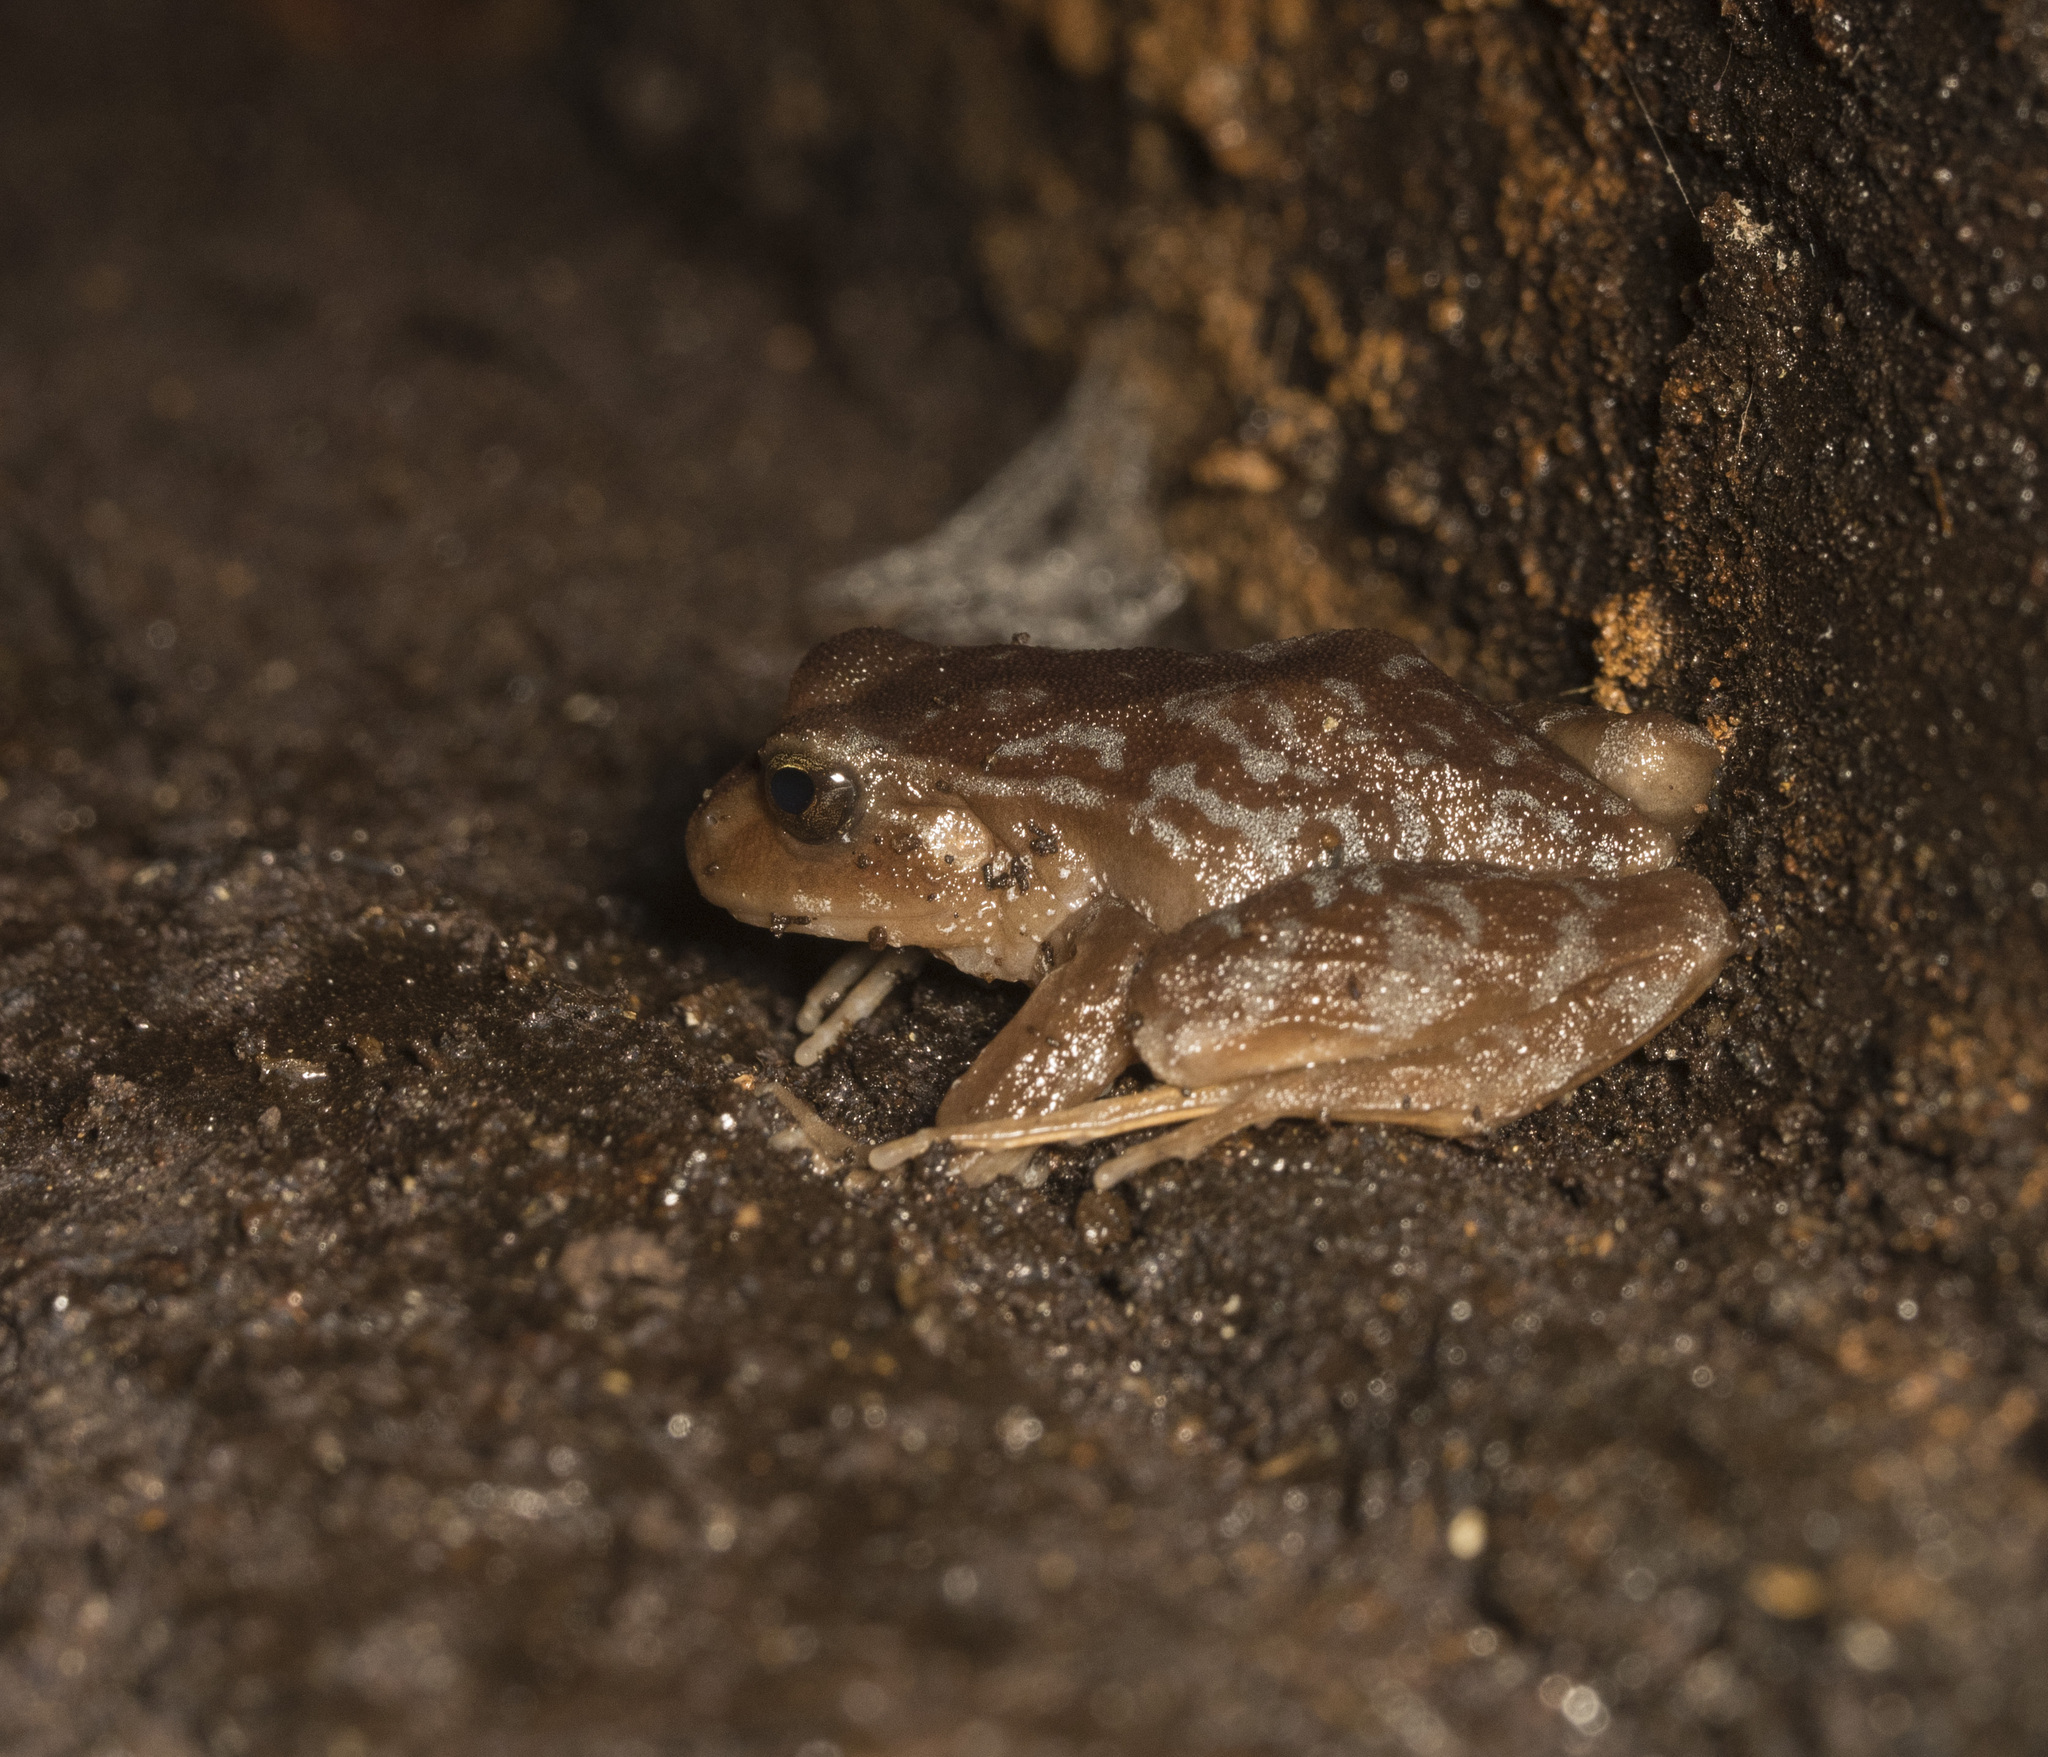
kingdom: Animalia
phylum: Chordata
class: Amphibia
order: Anura
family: Alsodidae
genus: Eupsophus
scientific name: Eupsophus altor
